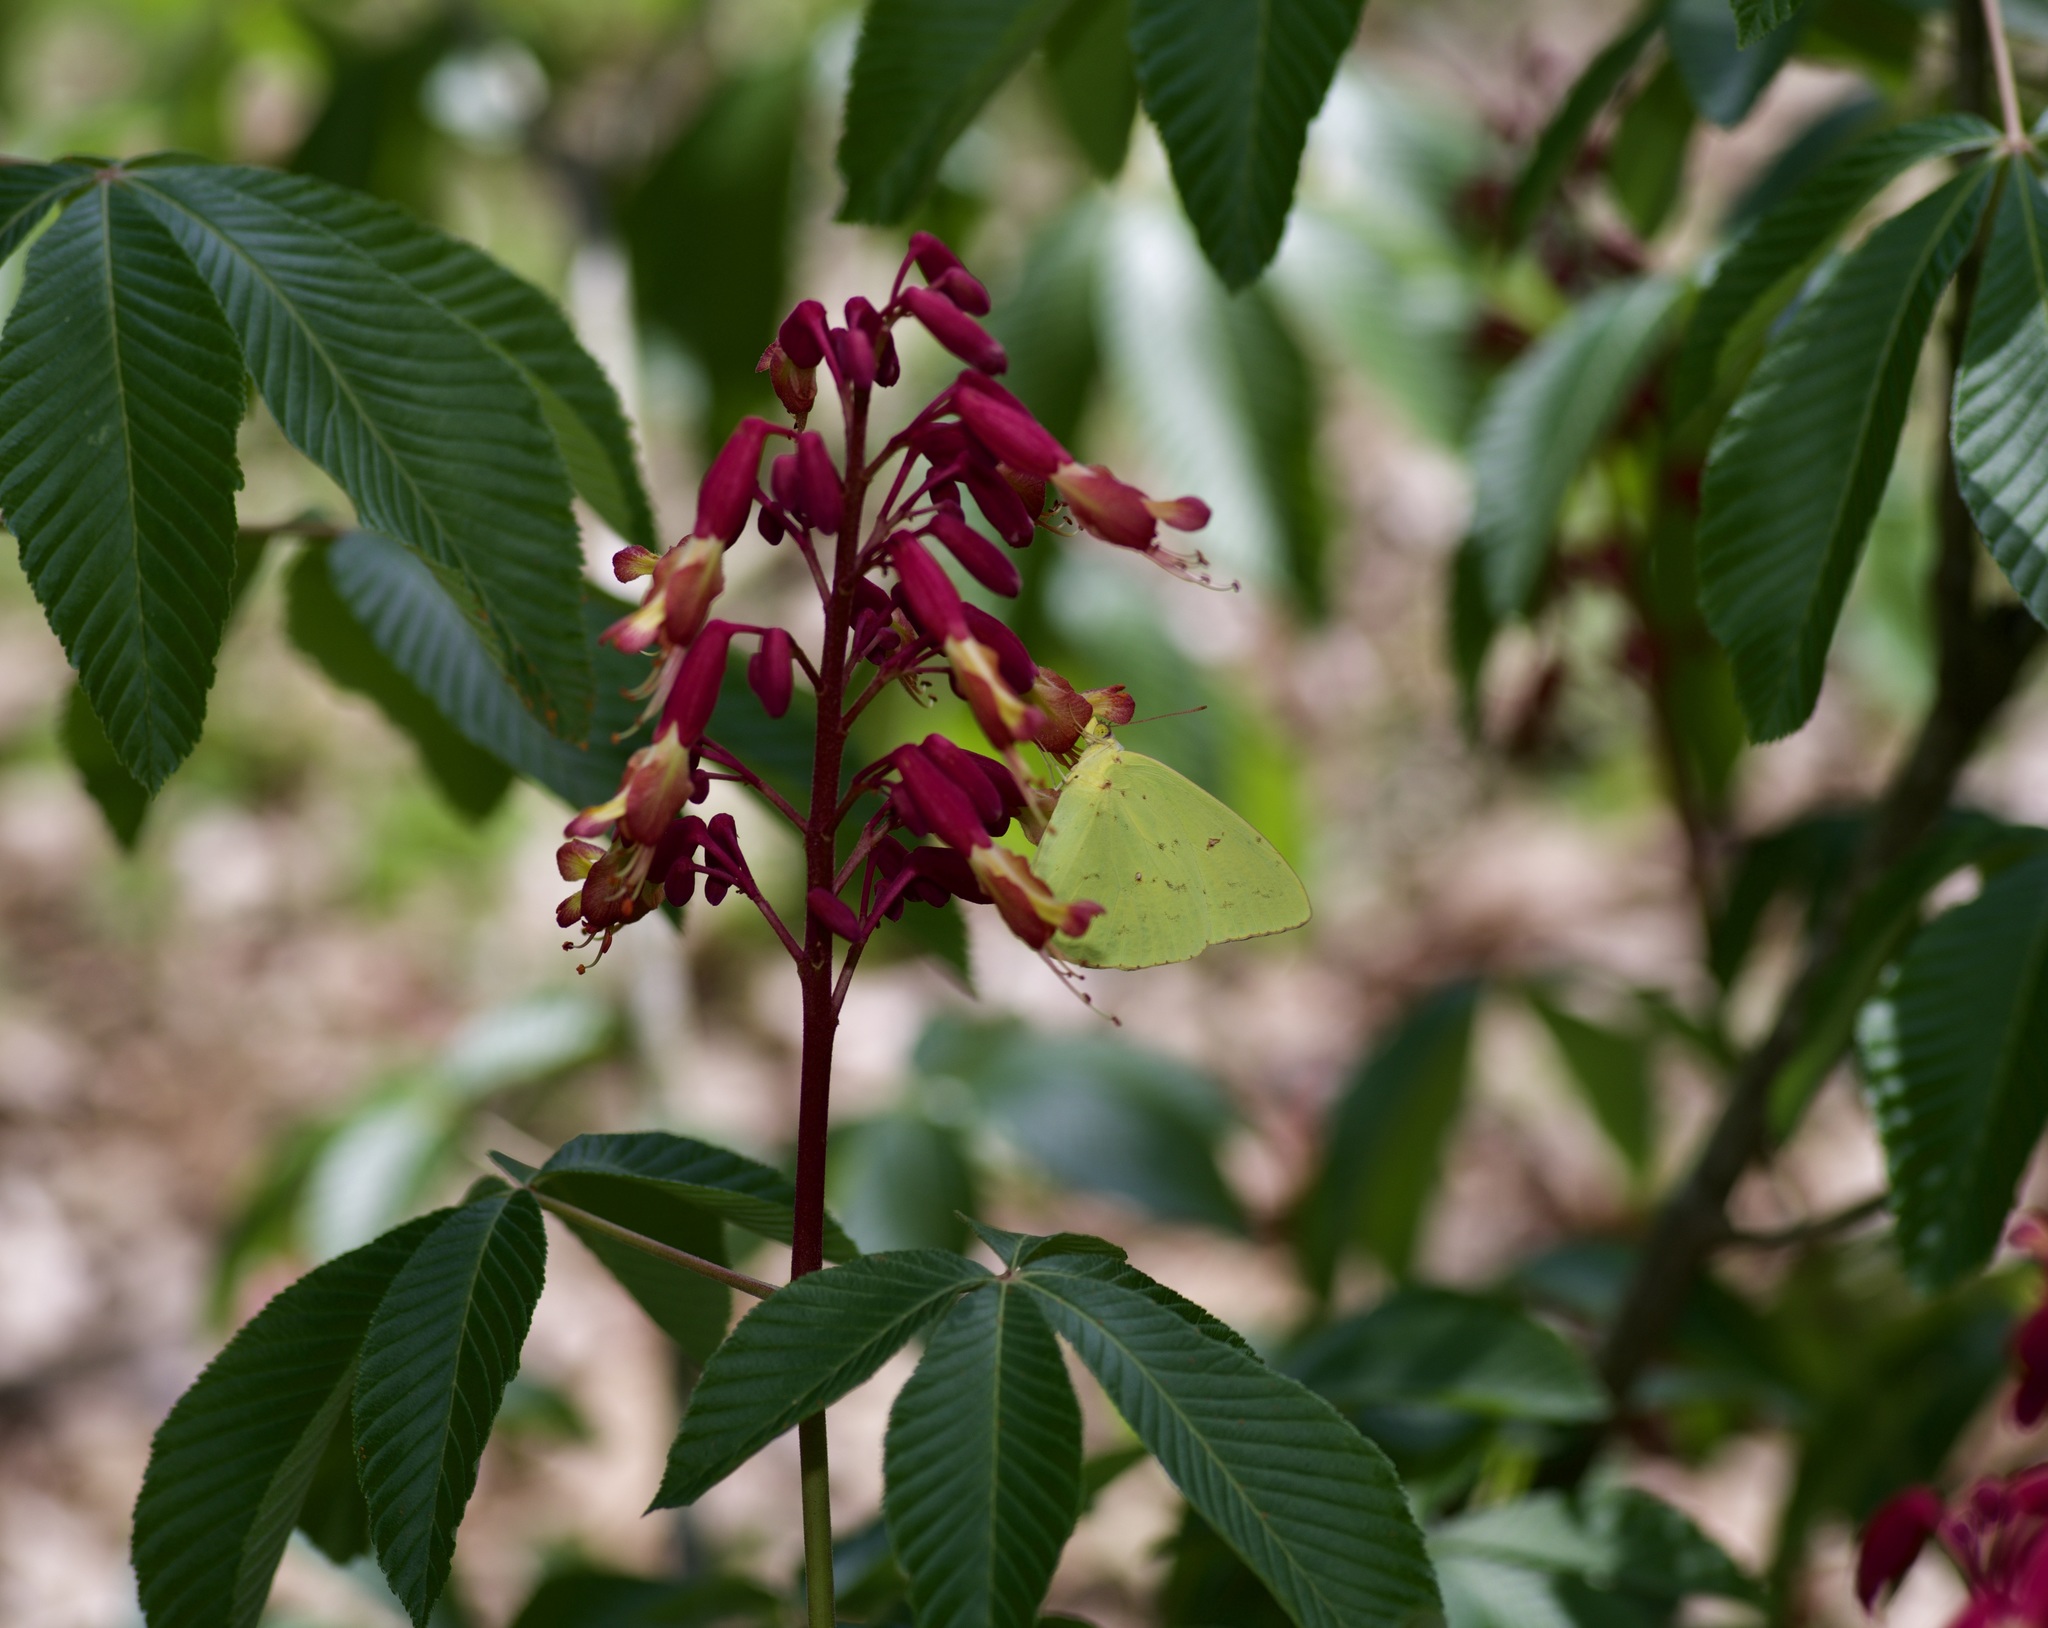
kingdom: Animalia
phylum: Arthropoda
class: Insecta
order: Lepidoptera
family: Pieridae
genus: Phoebis
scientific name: Phoebis sennae
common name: Cloudless sulphur
